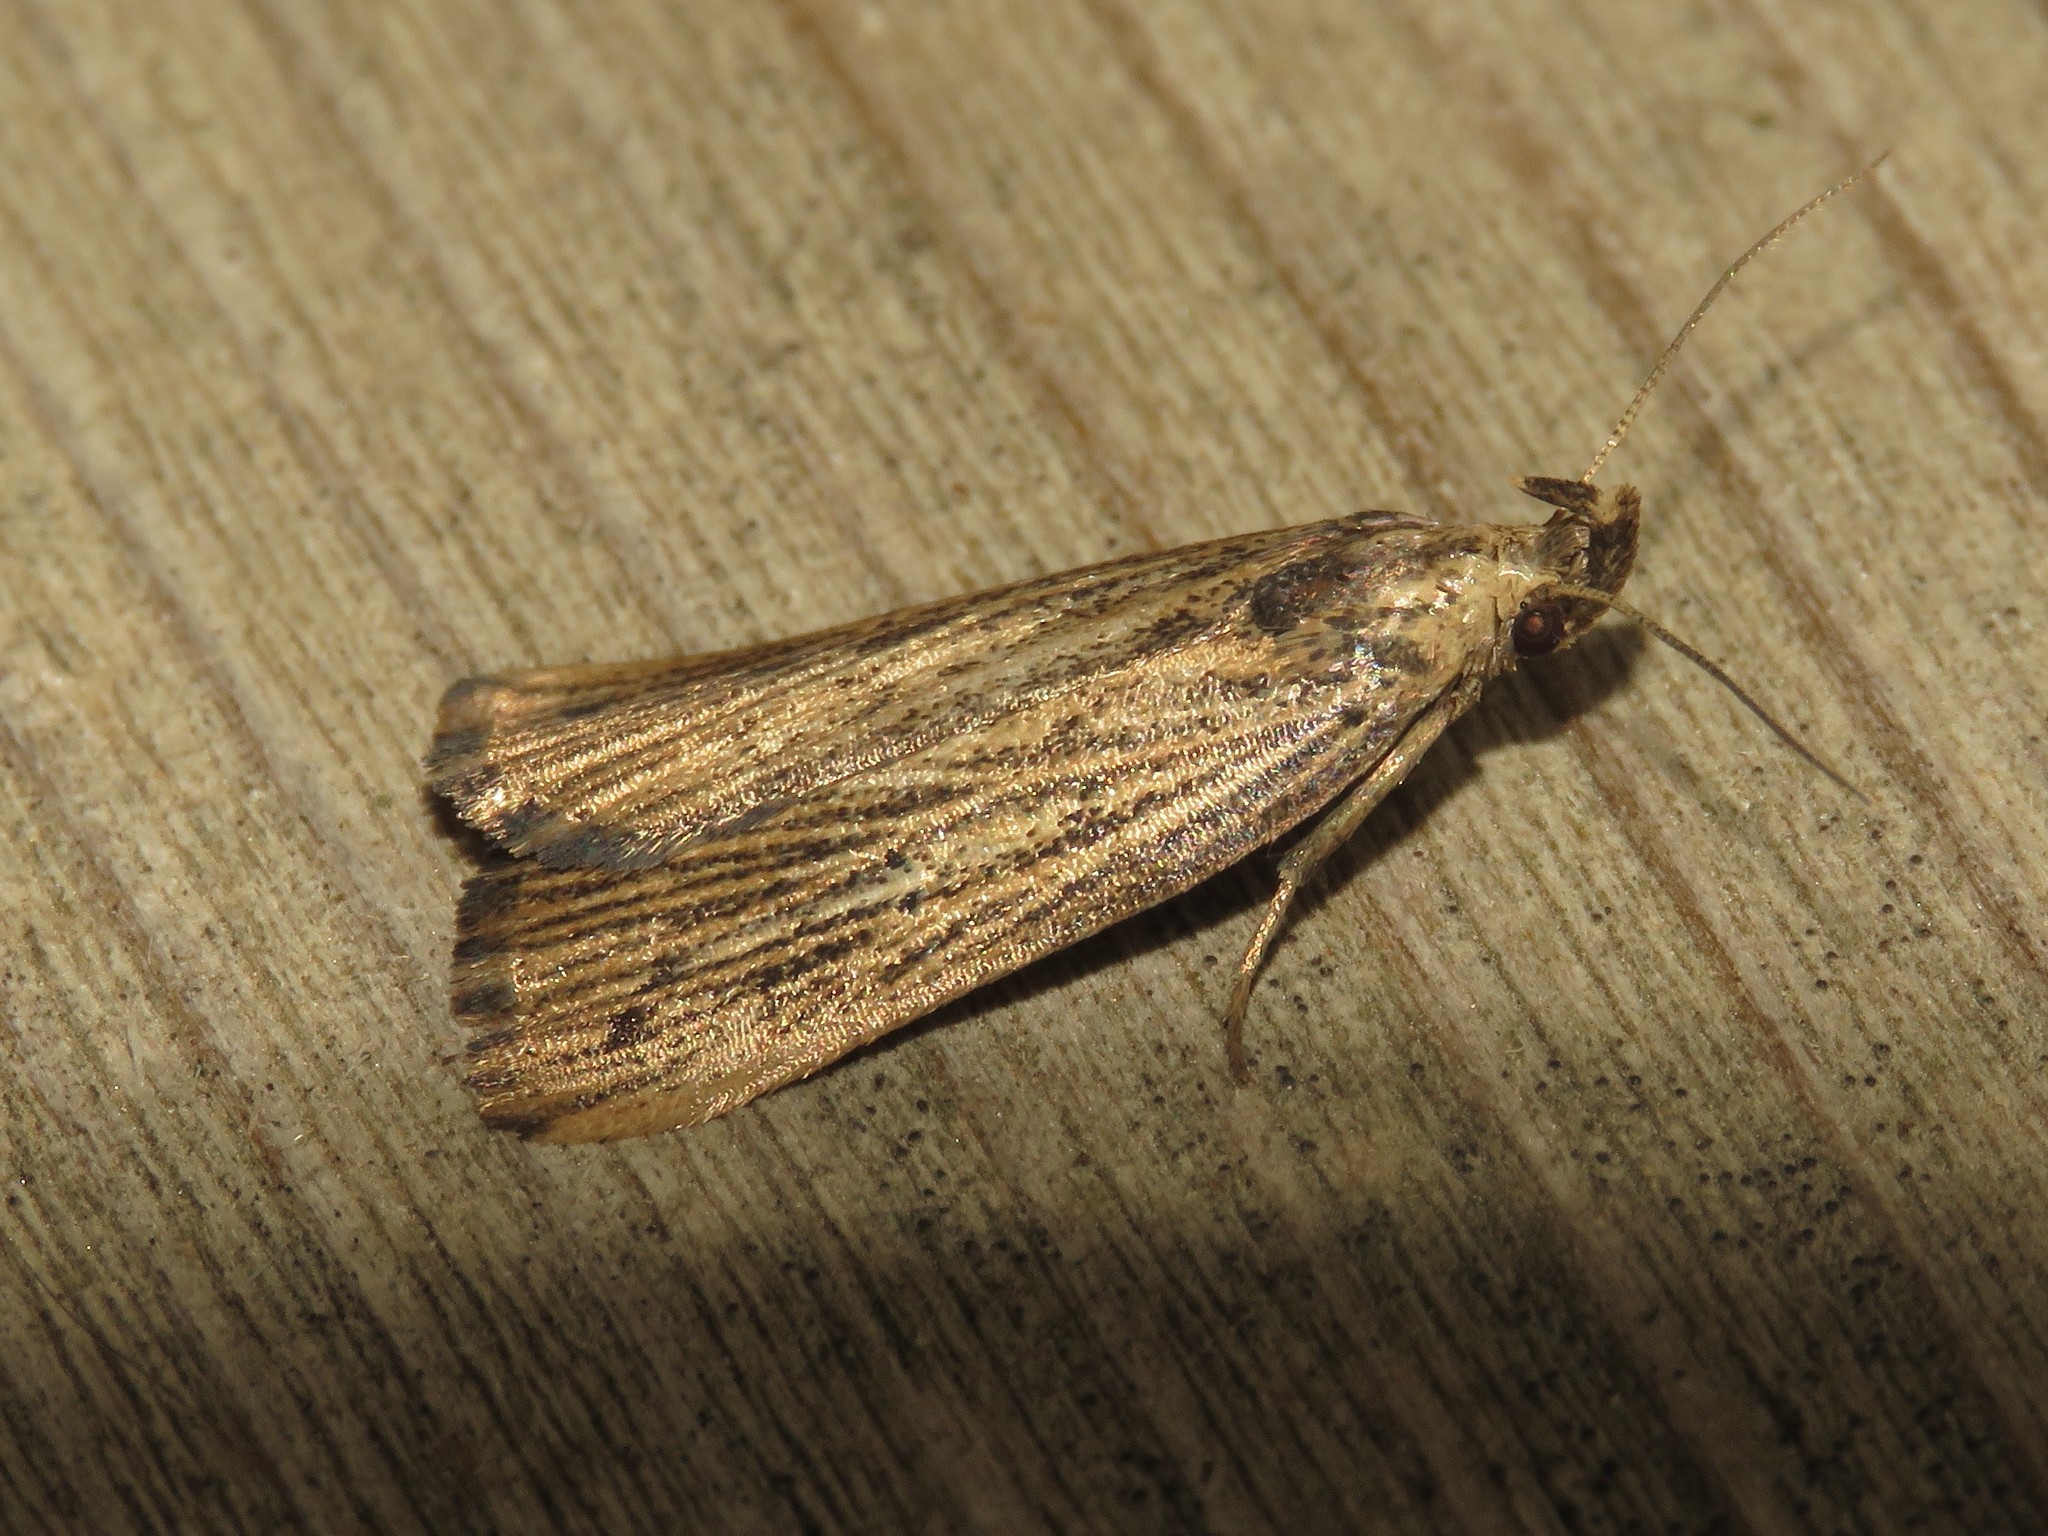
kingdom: Animalia
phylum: Arthropoda
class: Insecta
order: Lepidoptera
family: Gelechiidae
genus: Helcystogramma
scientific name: Helcystogramma hystricella
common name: Lanceolate moth
